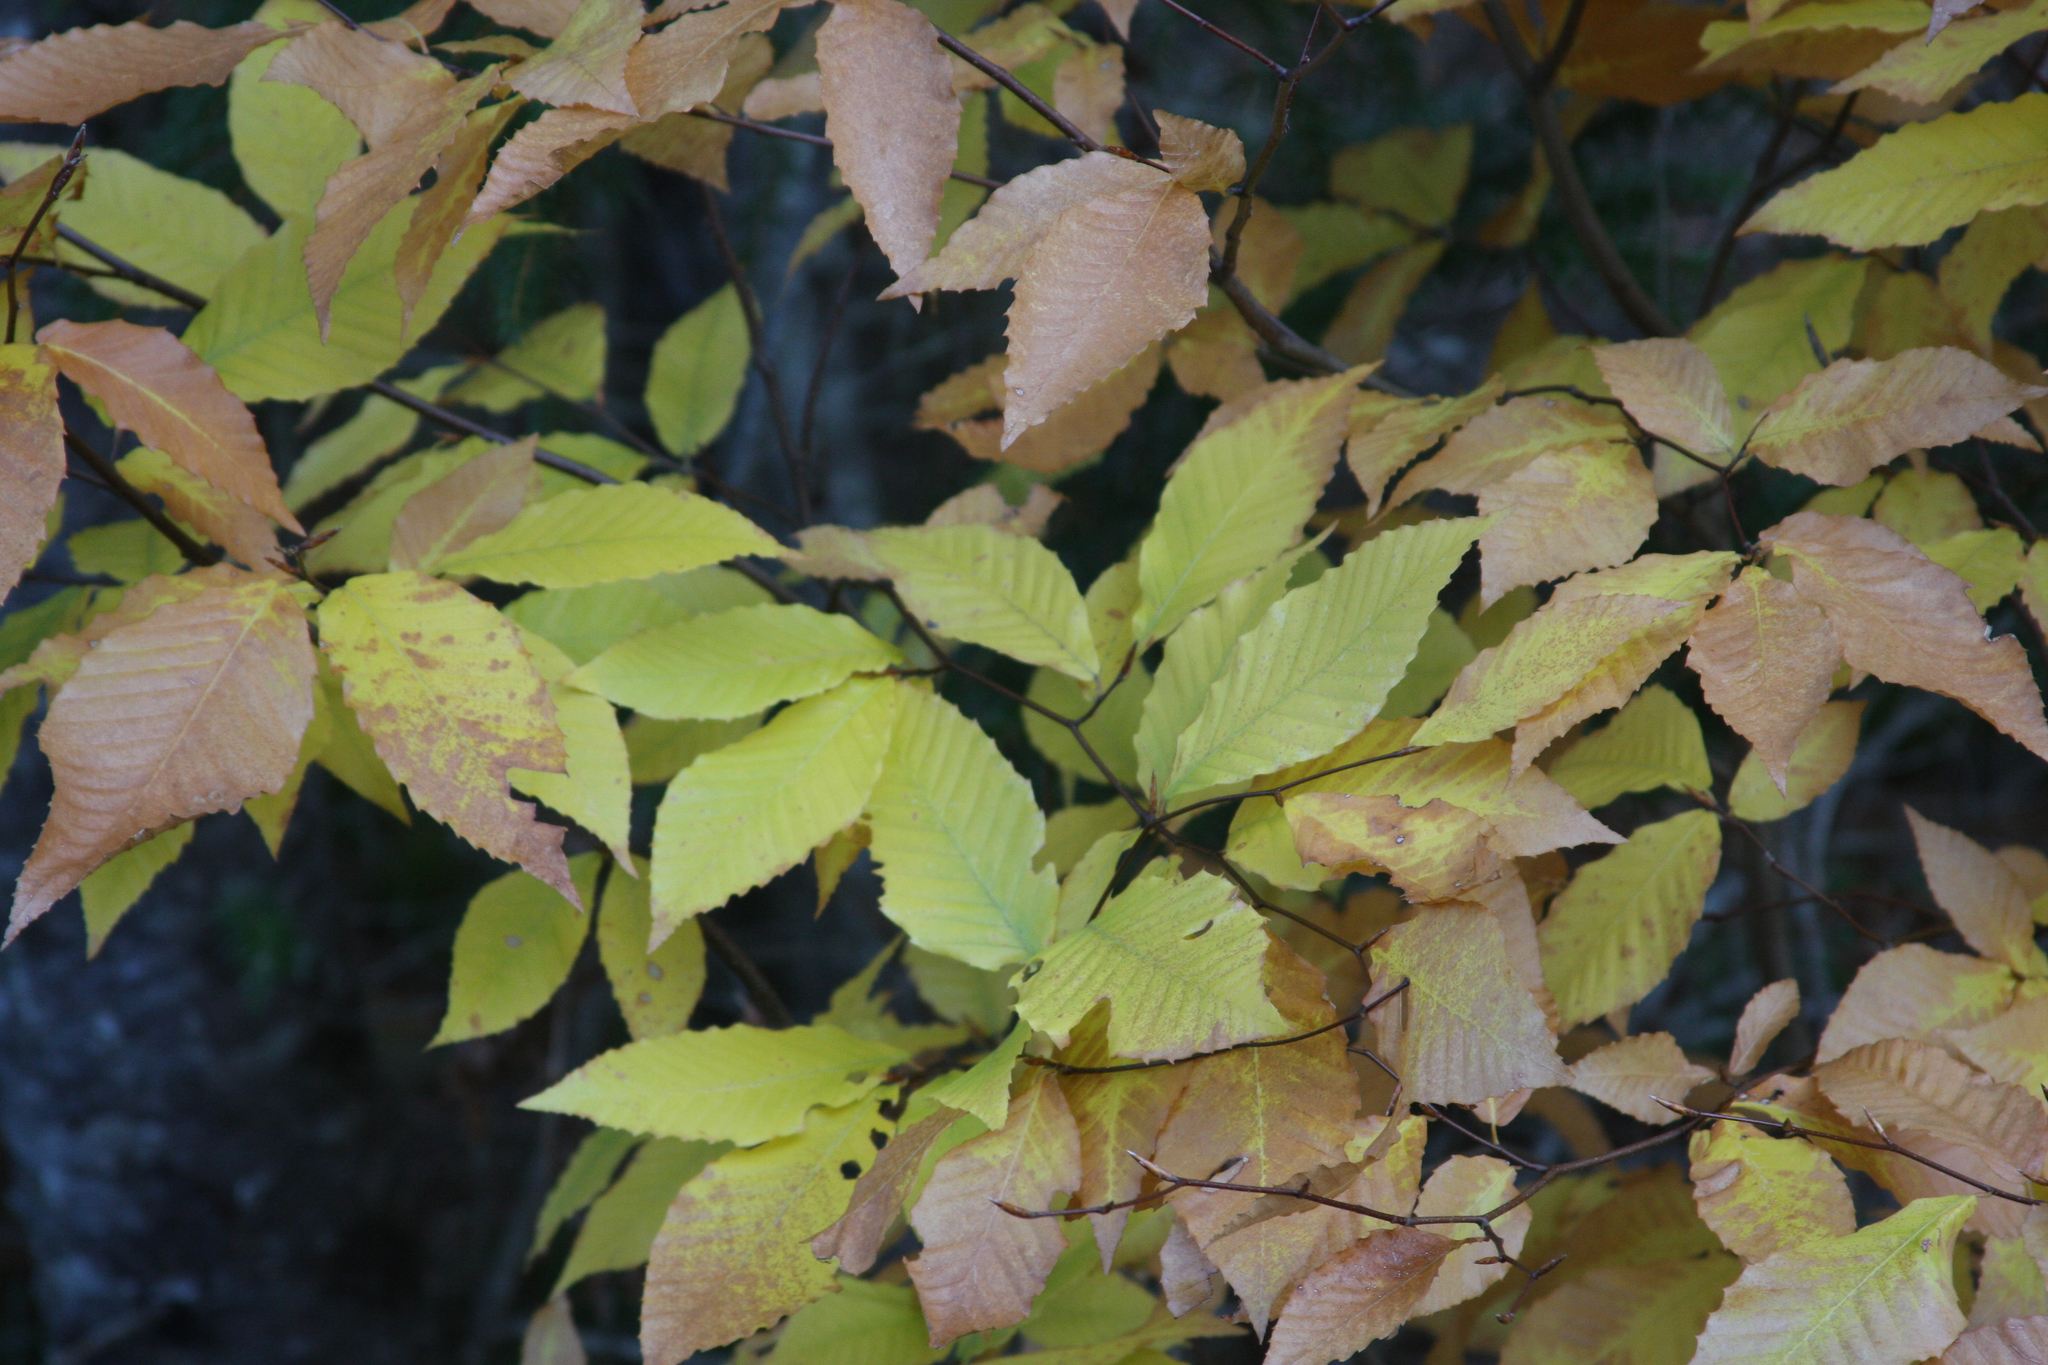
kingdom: Plantae
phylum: Tracheophyta
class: Magnoliopsida
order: Fagales
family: Fagaceae
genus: Fagus
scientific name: Fagus grandifolia
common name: American beech
